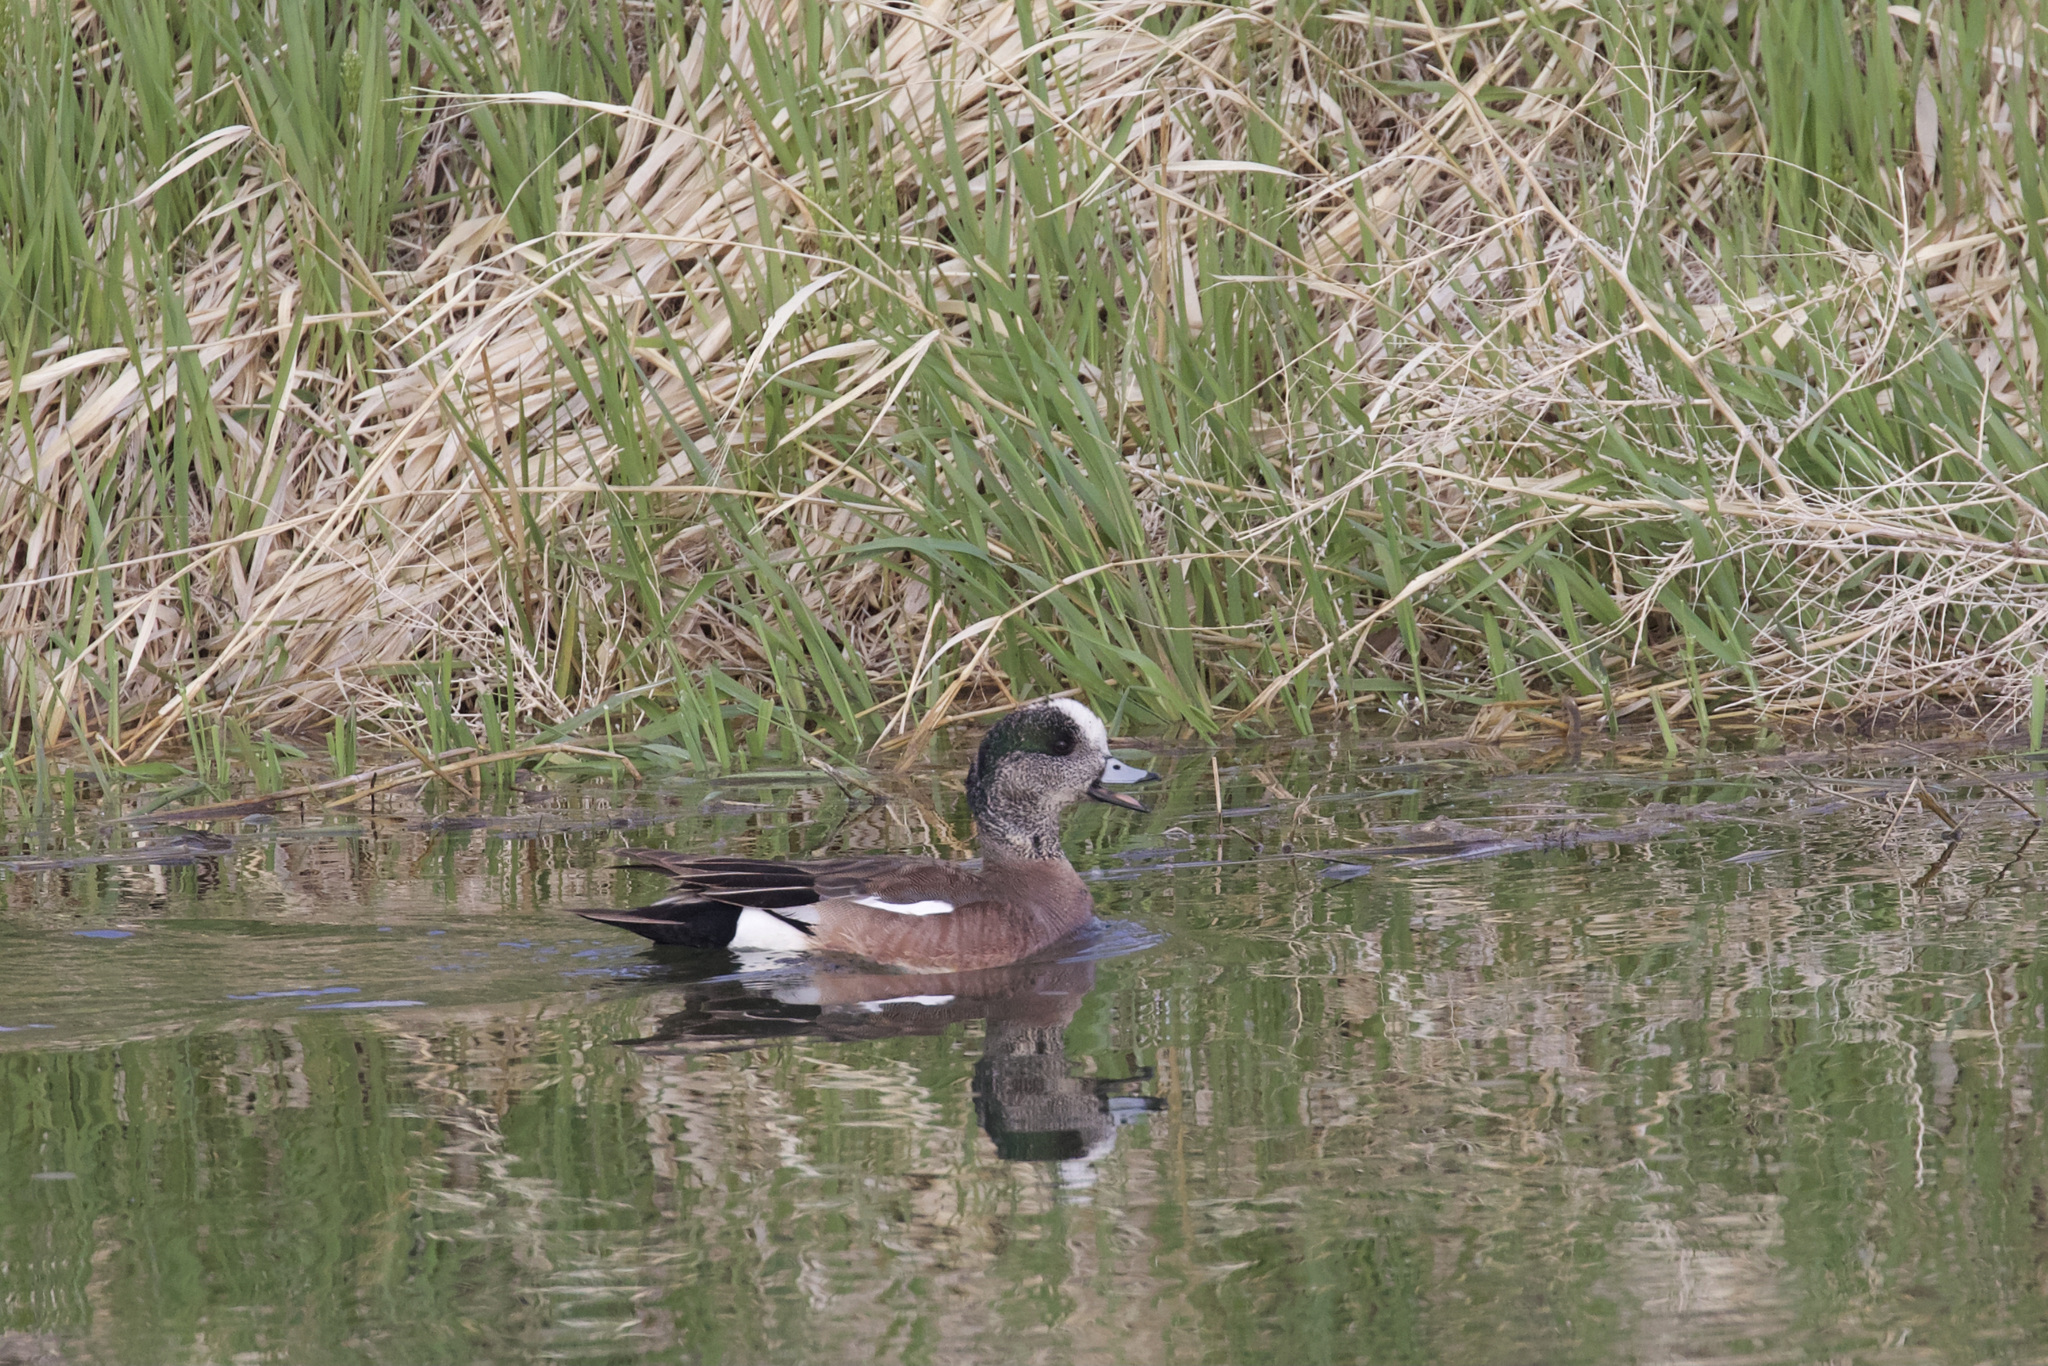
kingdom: Animalia
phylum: Chordata
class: Aves
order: Anseriformes
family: Anatidae
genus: Mareca
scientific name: Mareca americana
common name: American wigeon
